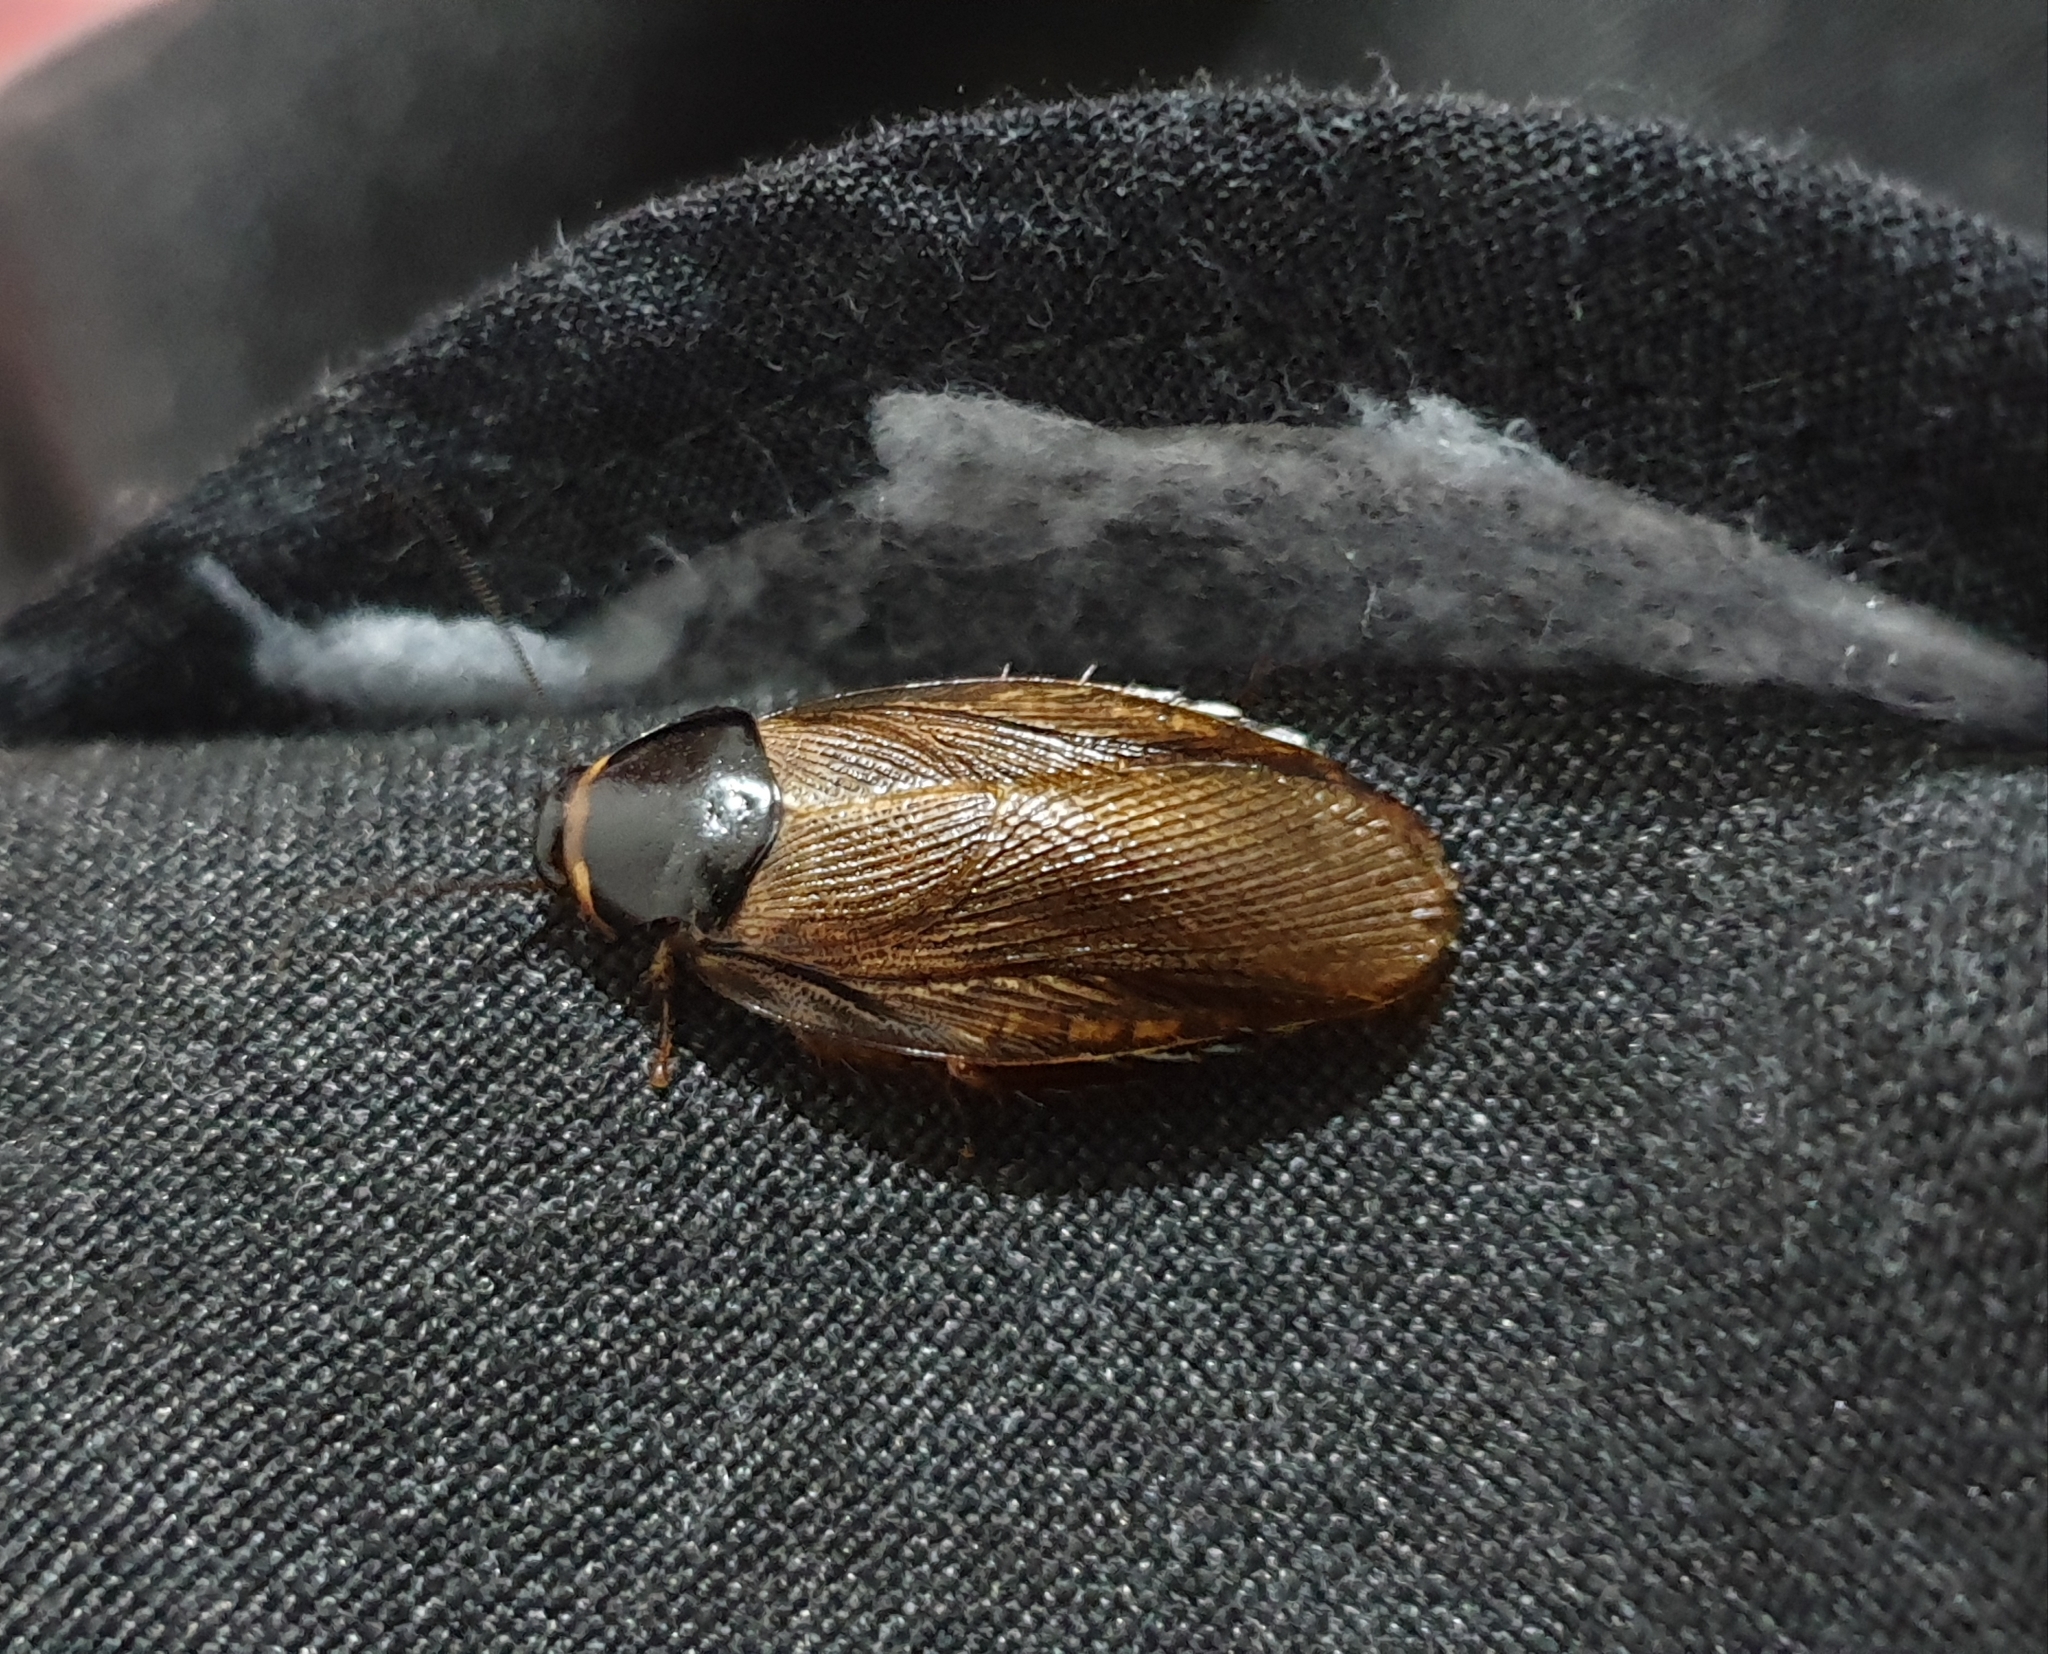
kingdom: Animalia
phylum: Arthropoda
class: Insecta
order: Blattodea
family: Blaberidae
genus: Pycnoscelus
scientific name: Pycnoscelus indicus
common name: Burrowing cockroach
